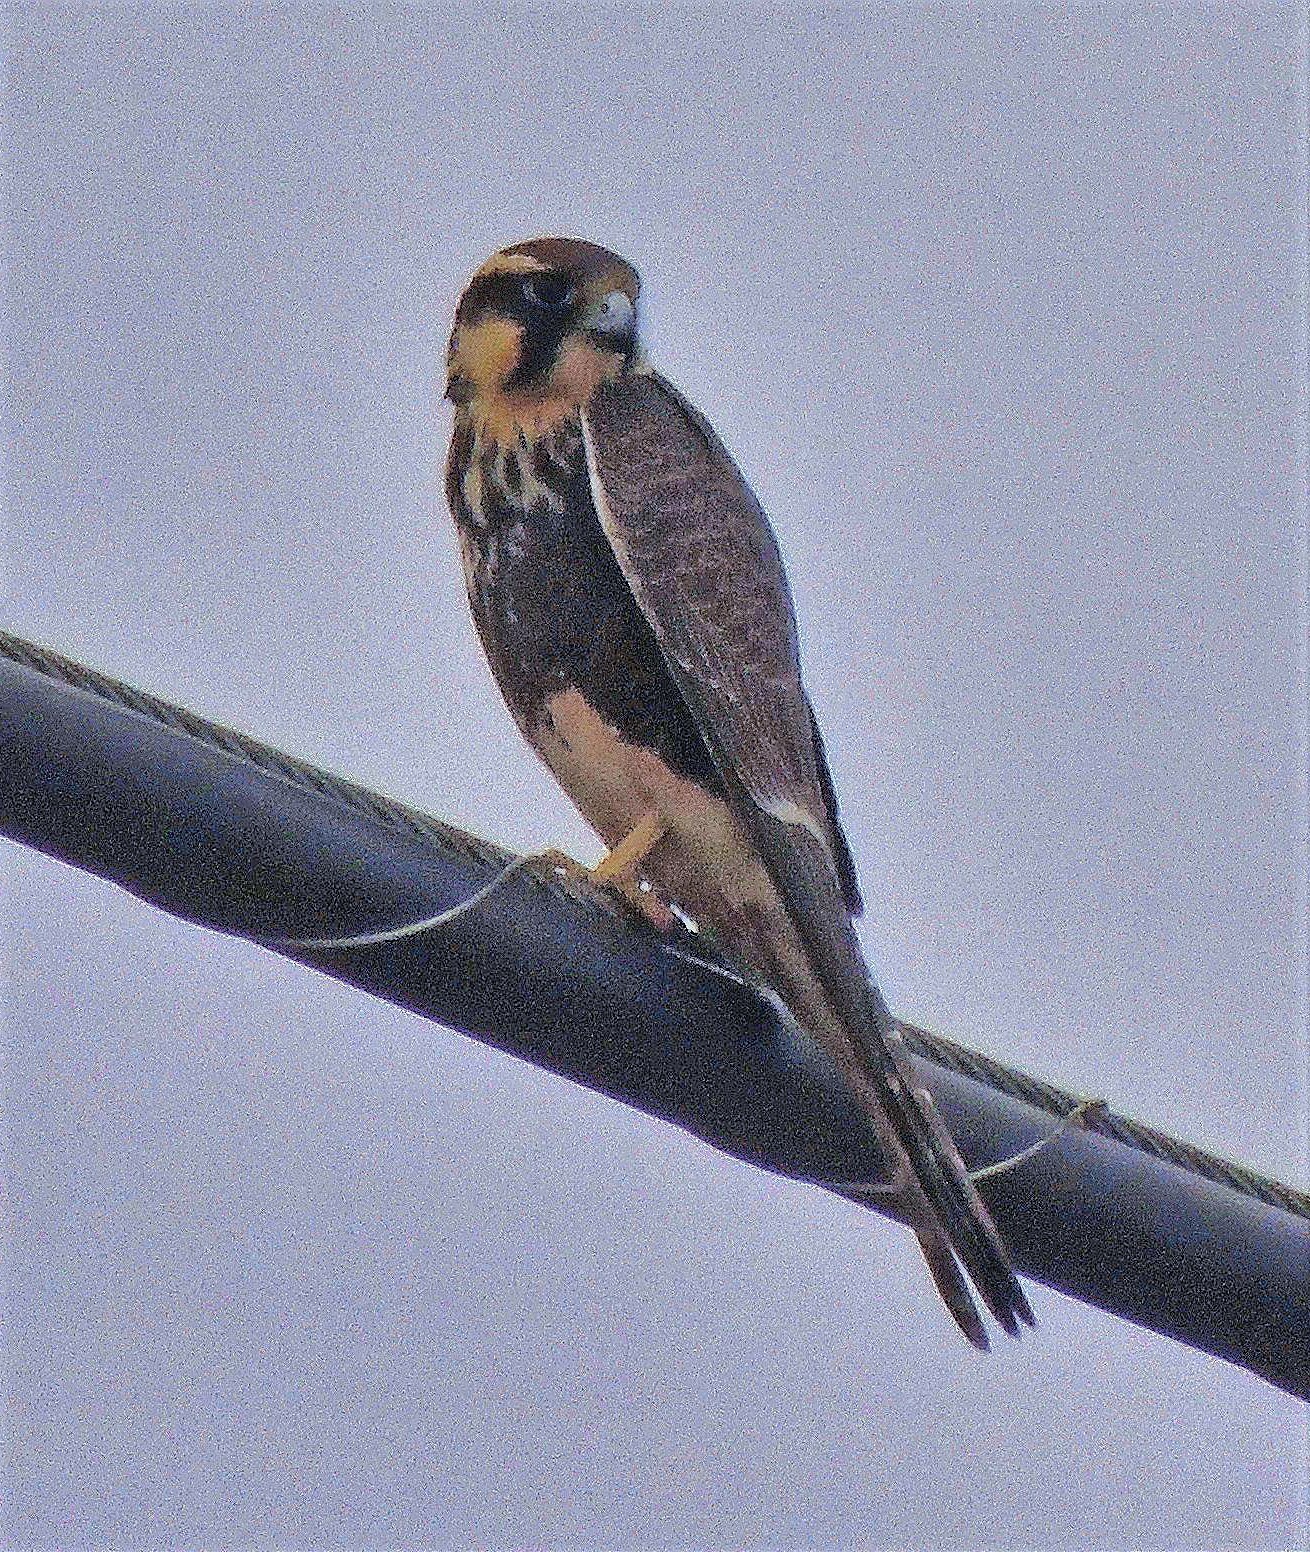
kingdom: Animalia
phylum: Chordata
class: Aves
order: Falconiformes
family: Falconidae
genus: Falco
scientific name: Falco femoralis
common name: Aplomado falcon
